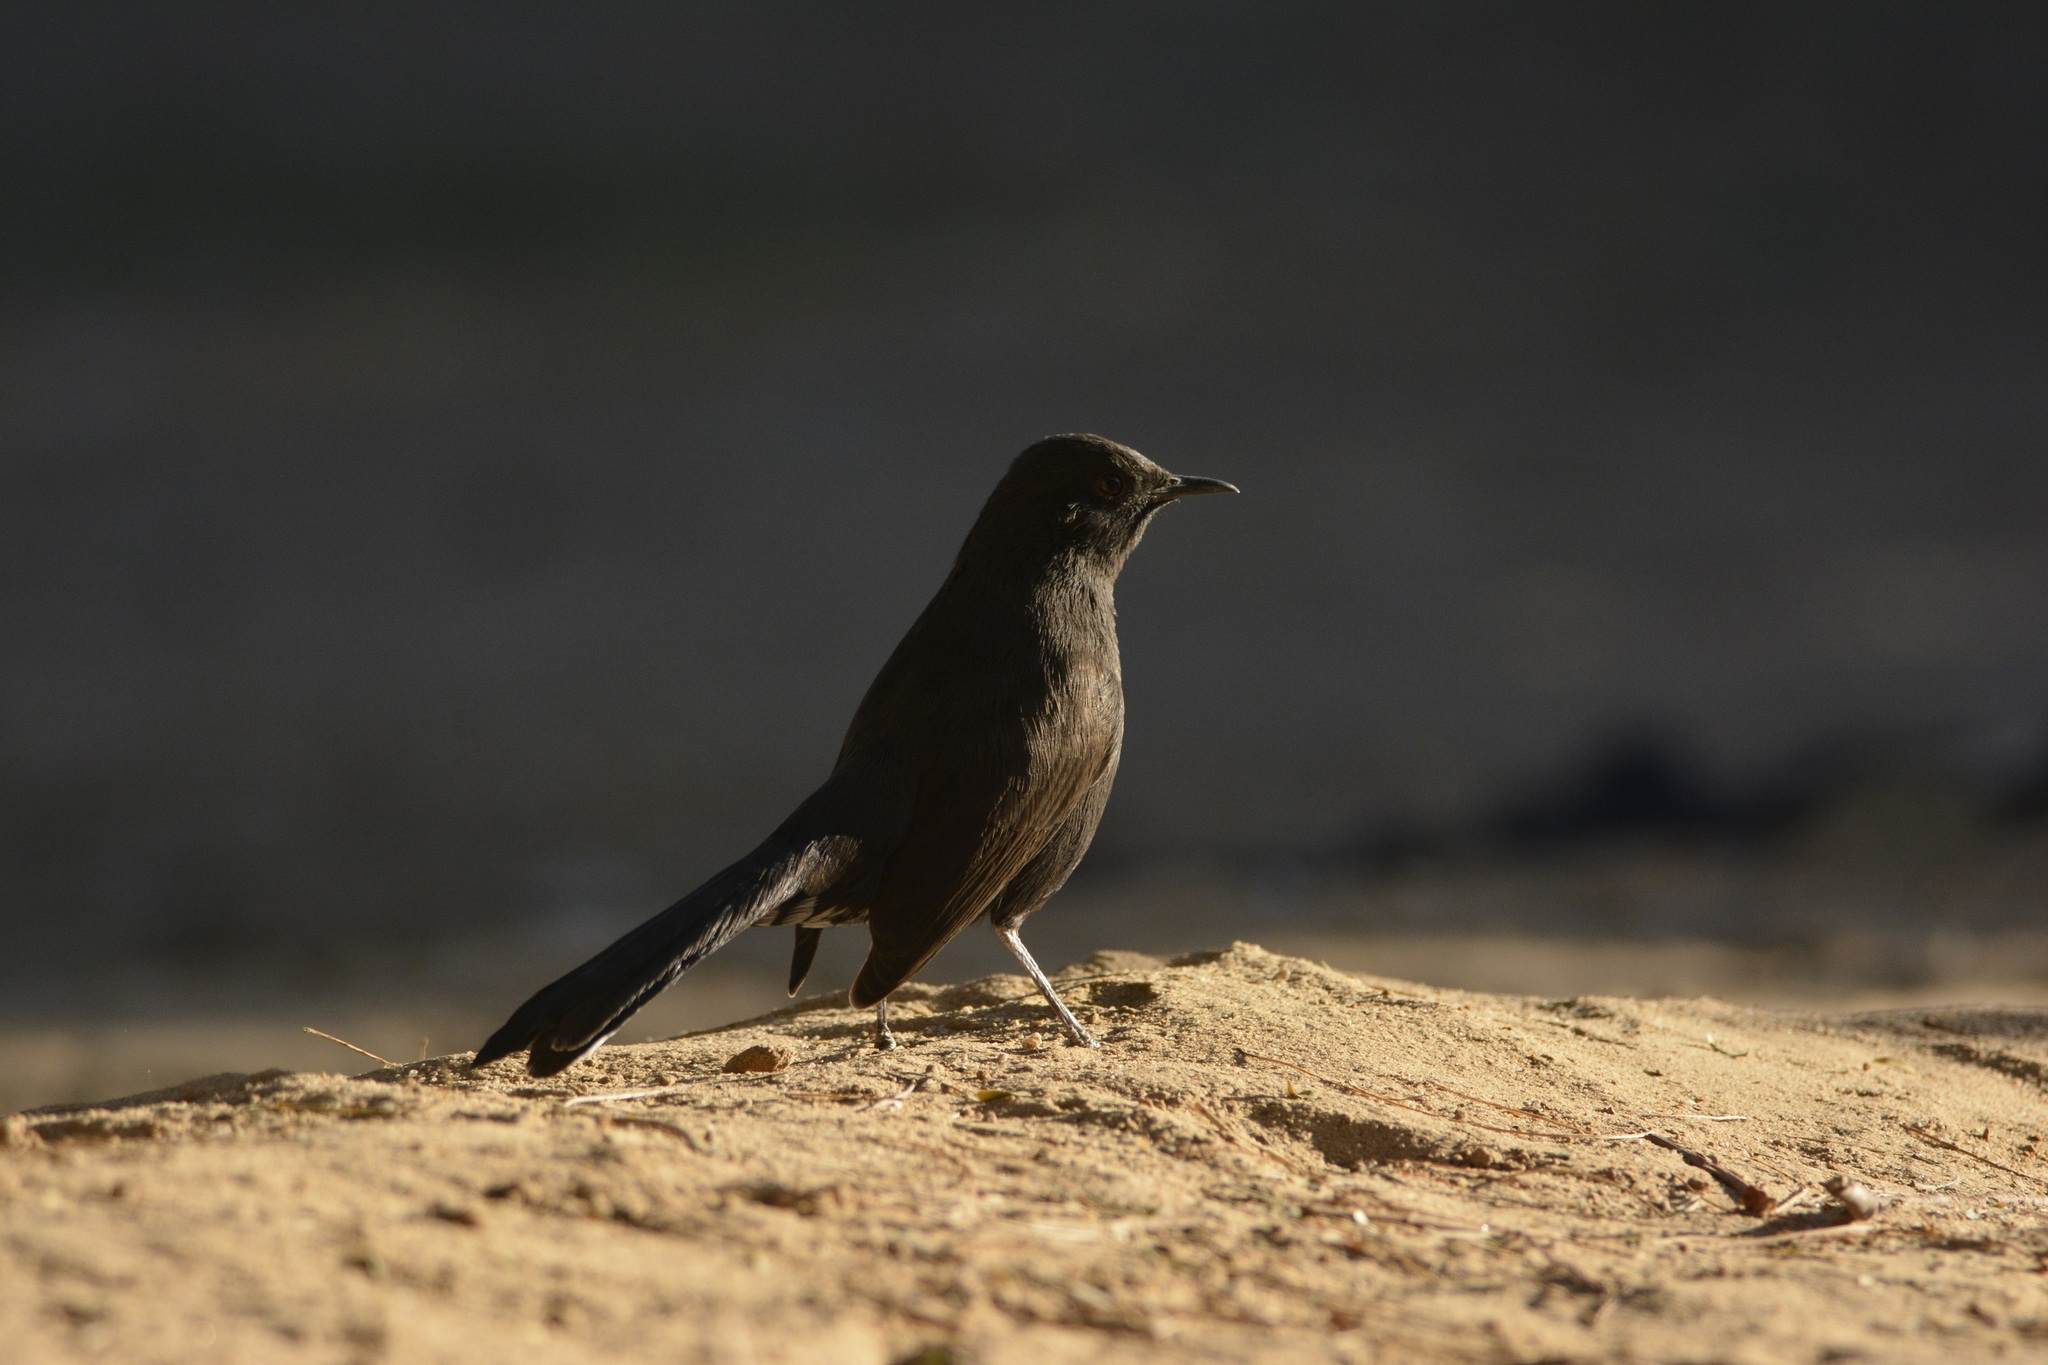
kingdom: Animalia
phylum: Chordata
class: Aves
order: Passeriformes
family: Muscicapidae
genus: Cercotrichas
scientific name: Cercotrichas podobe
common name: Black scrub robin
